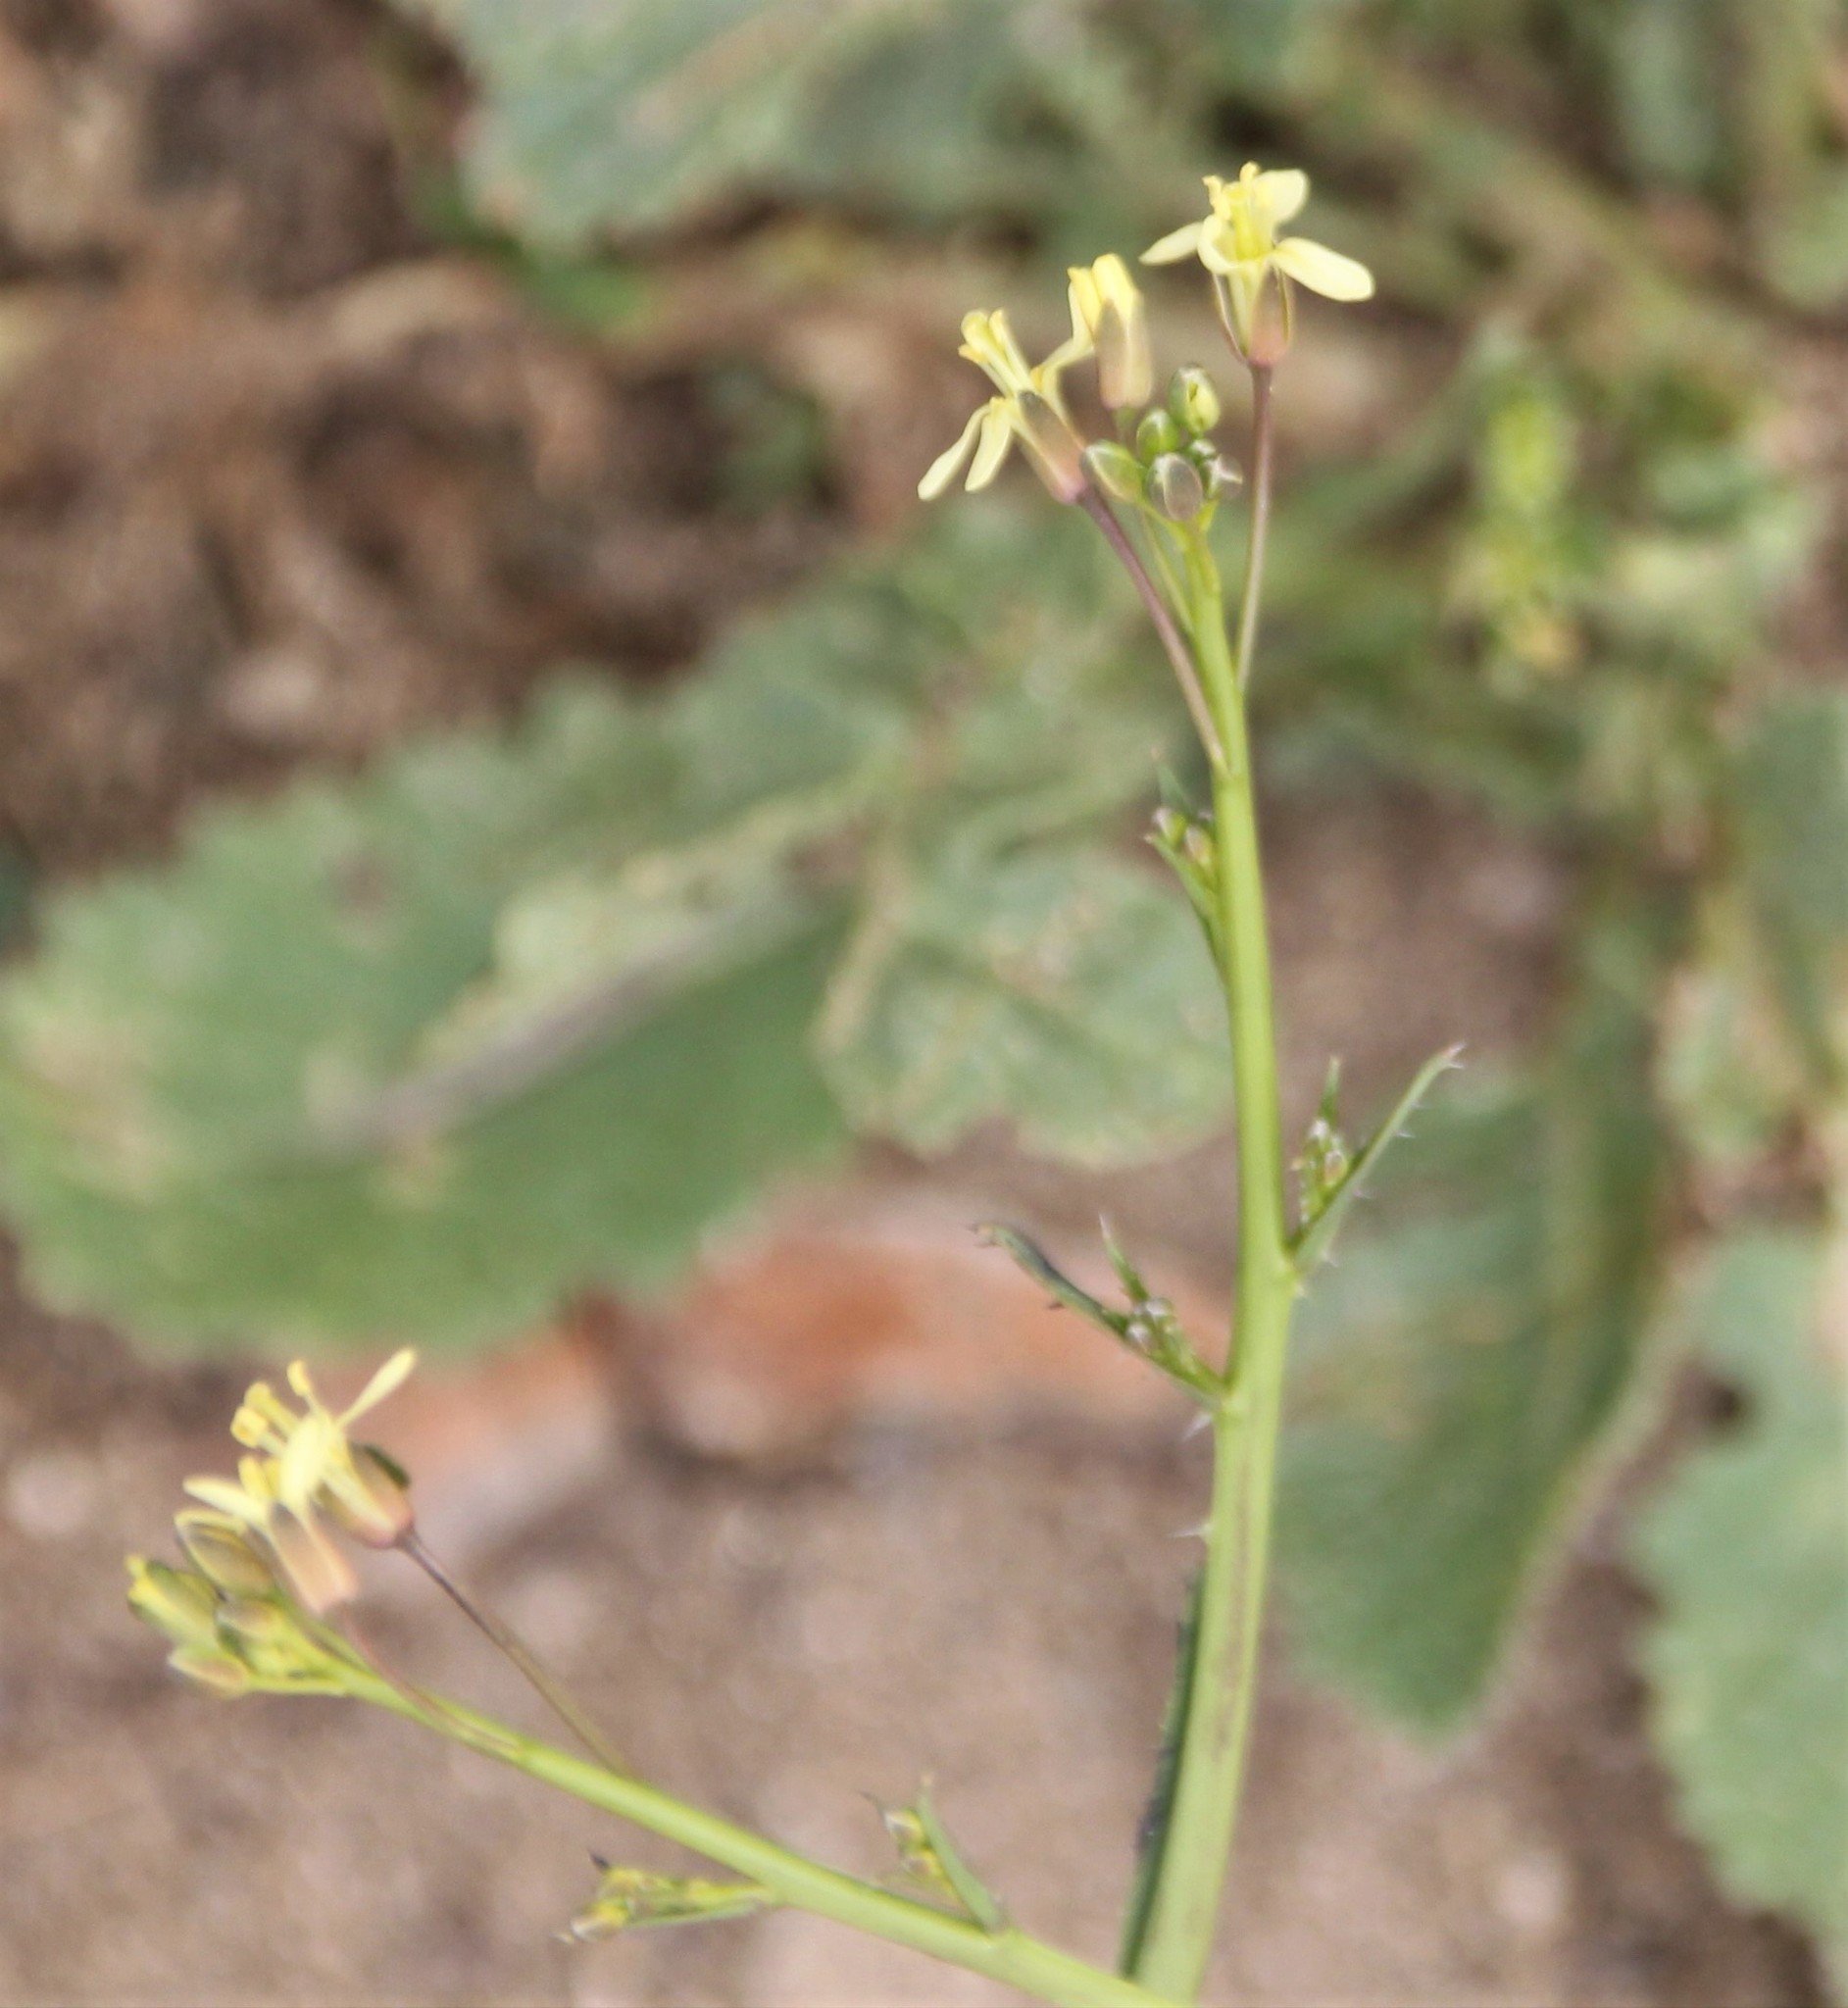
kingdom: Plantae
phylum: Tracheophyta
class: Magnoliopsida
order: Brassicales
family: Brassicaceae
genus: Brassica
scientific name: Brassica tournefortii
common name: Pale cabbage
